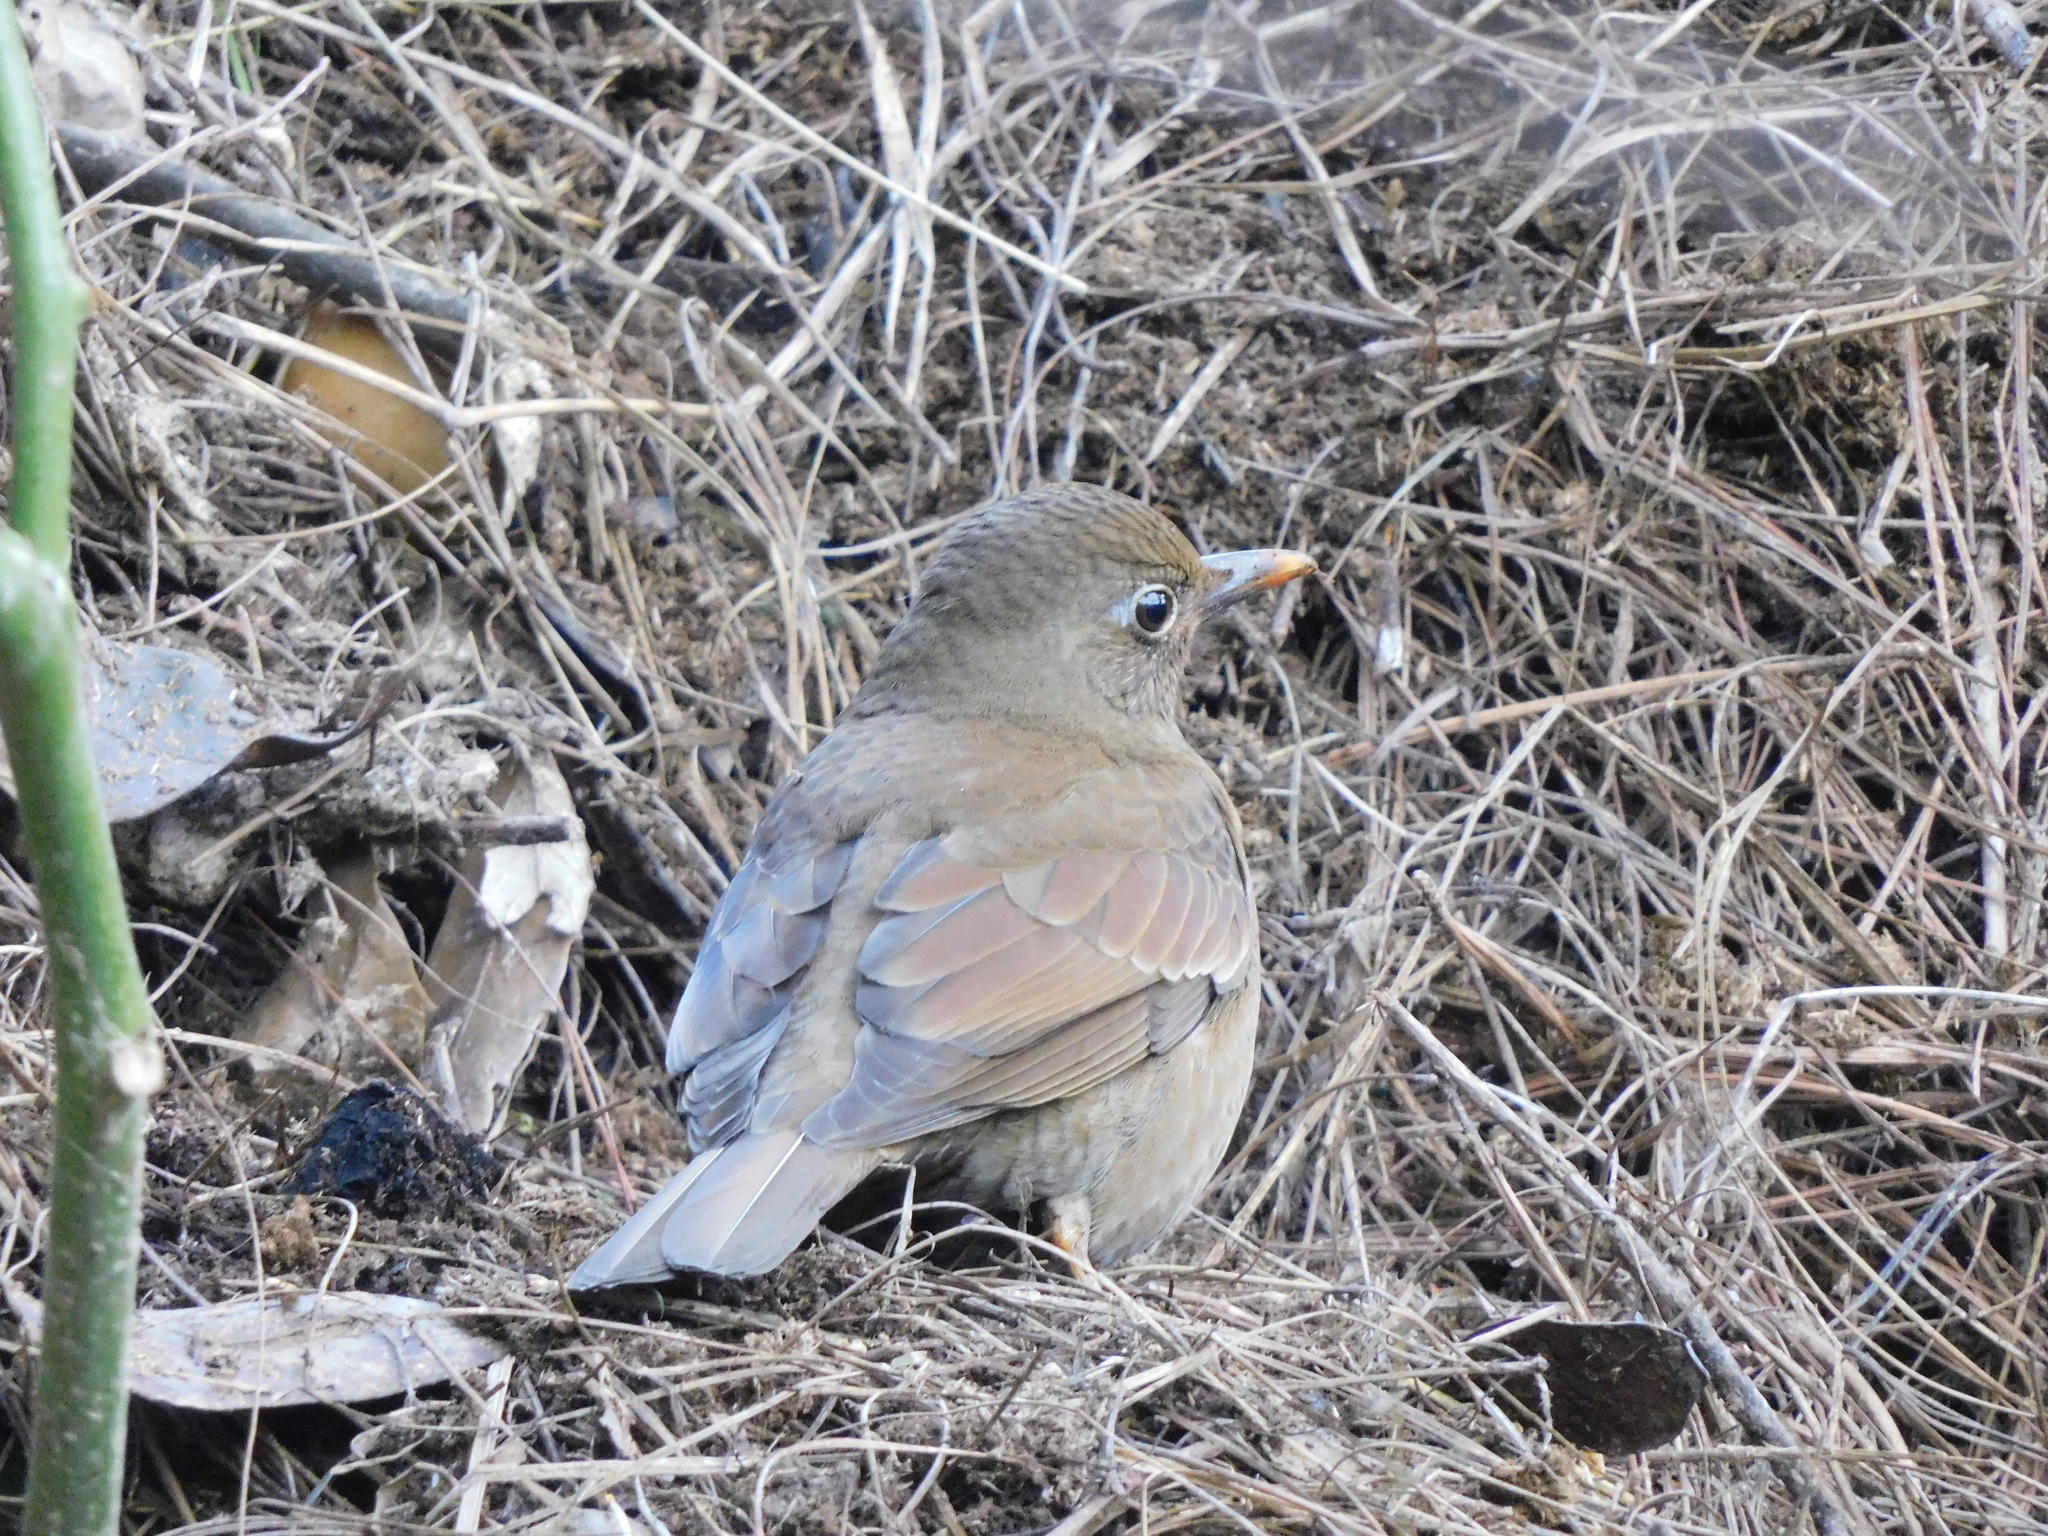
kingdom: Animalia
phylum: Chordata
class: Aves
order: Passeriformes
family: Turdidae
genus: Turdus
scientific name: Turdus boulboul
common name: Grey-winged blackbird
